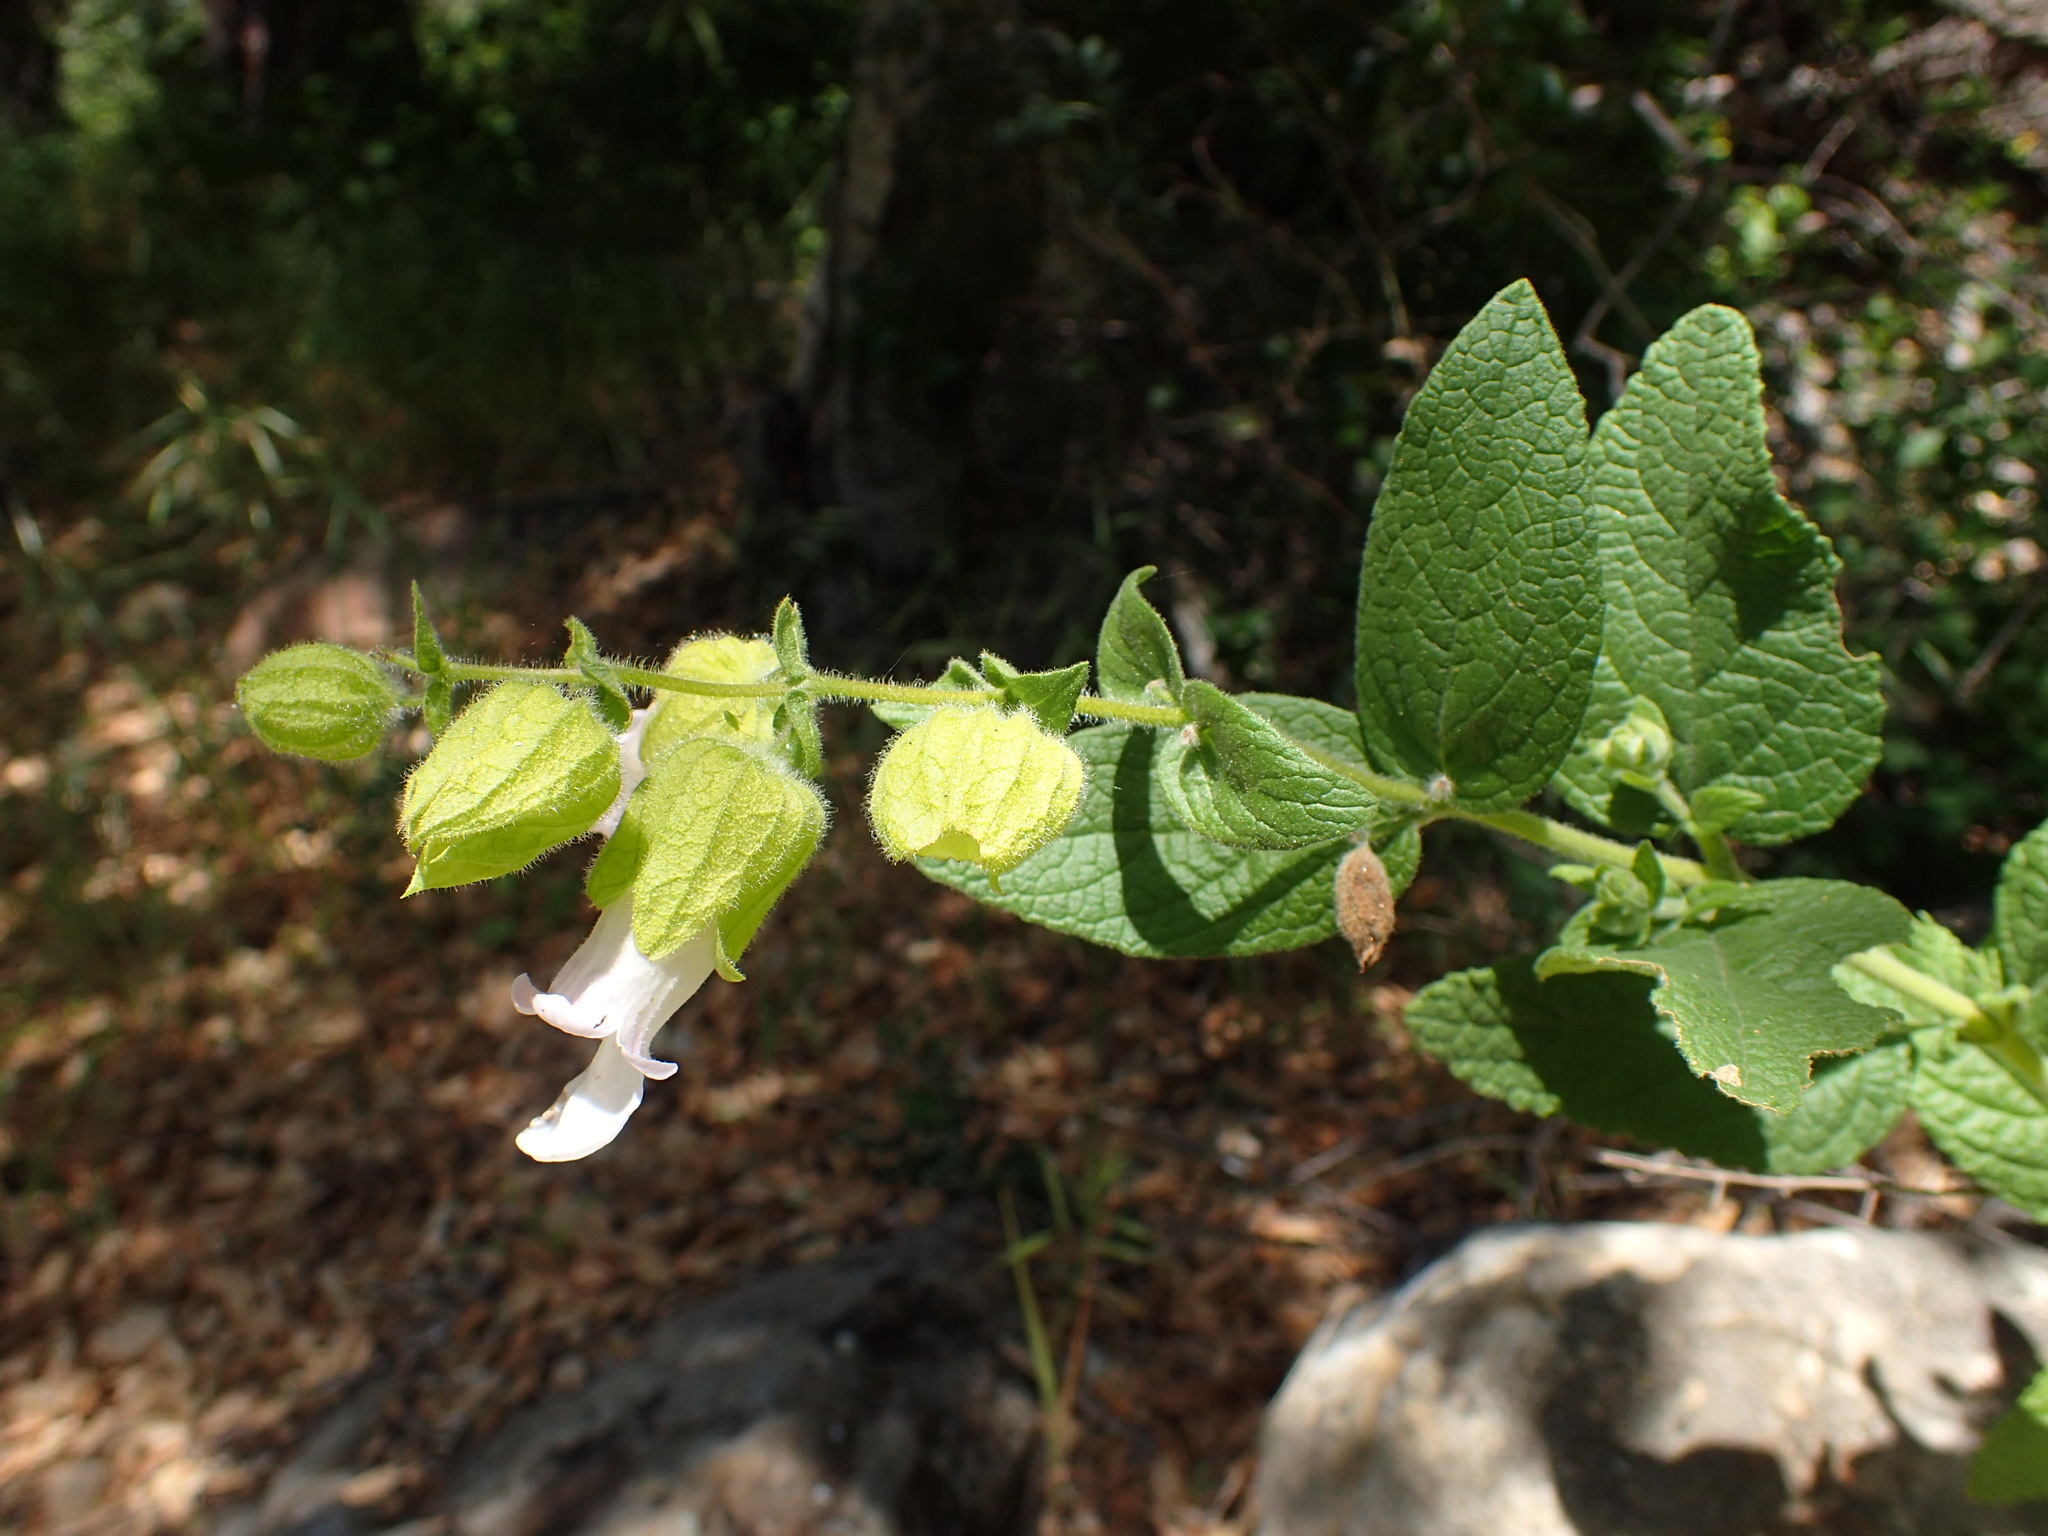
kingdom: Plantae
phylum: Tracheophyta
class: Magnoliopsida
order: Lamiales
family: Lamiaceae
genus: Lepechinia
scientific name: Lepechinia calycina
